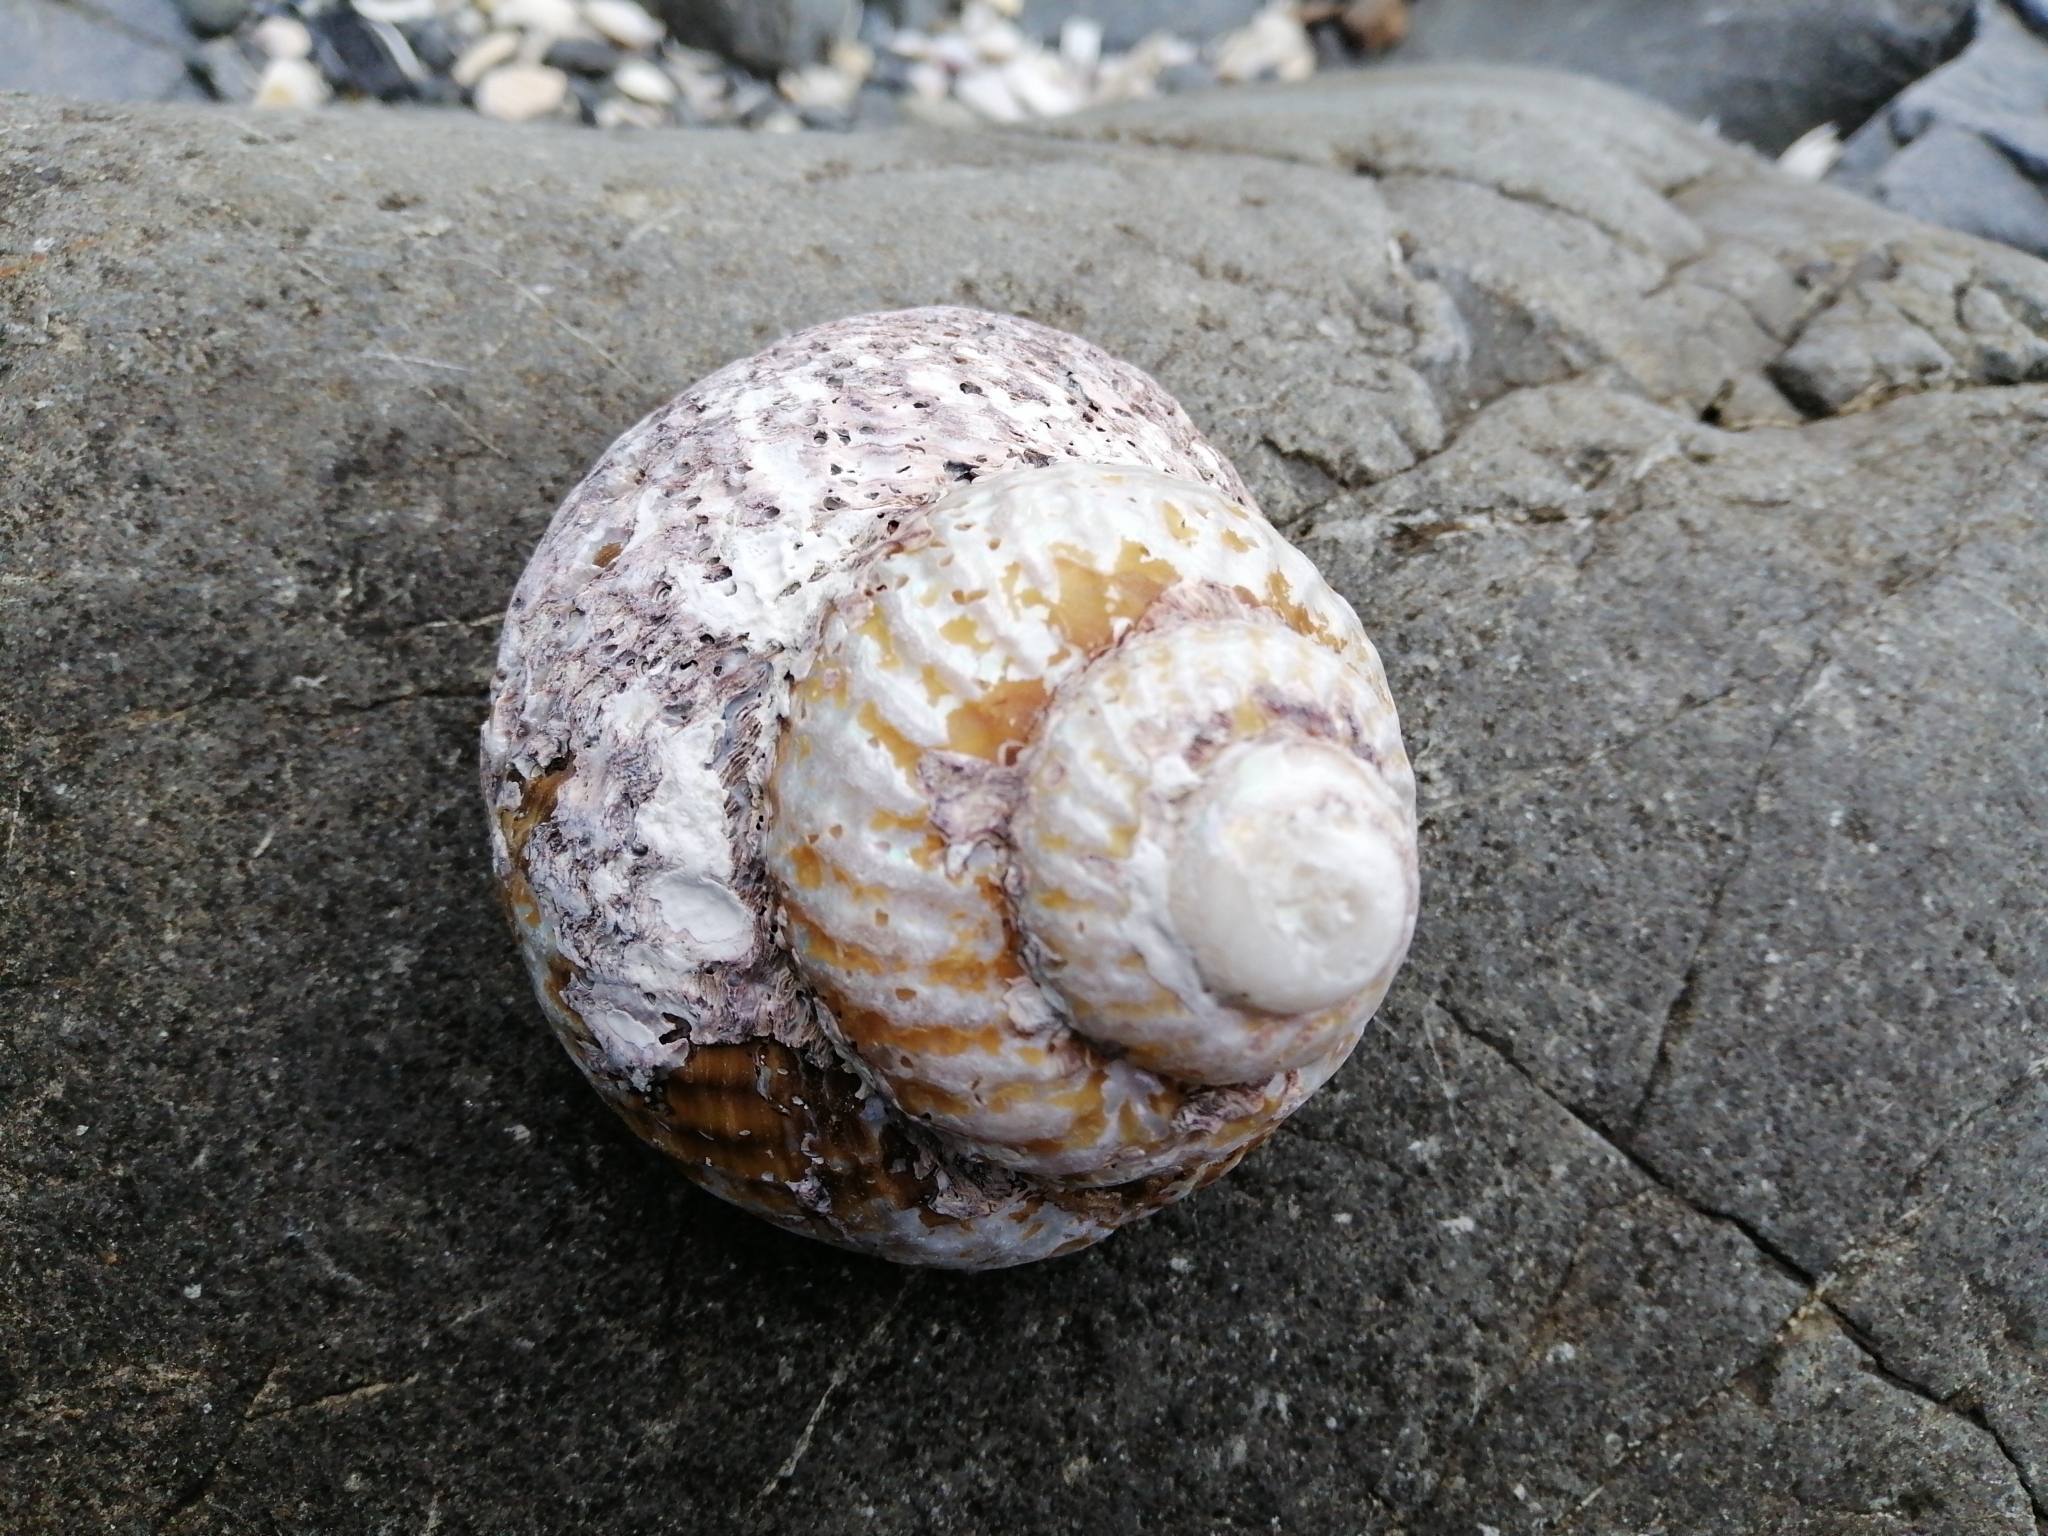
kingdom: Animalia
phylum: Mollusca
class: Gastropoda
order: Trochida
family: Turbinidae
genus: Cookia
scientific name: Cookia sulcata
